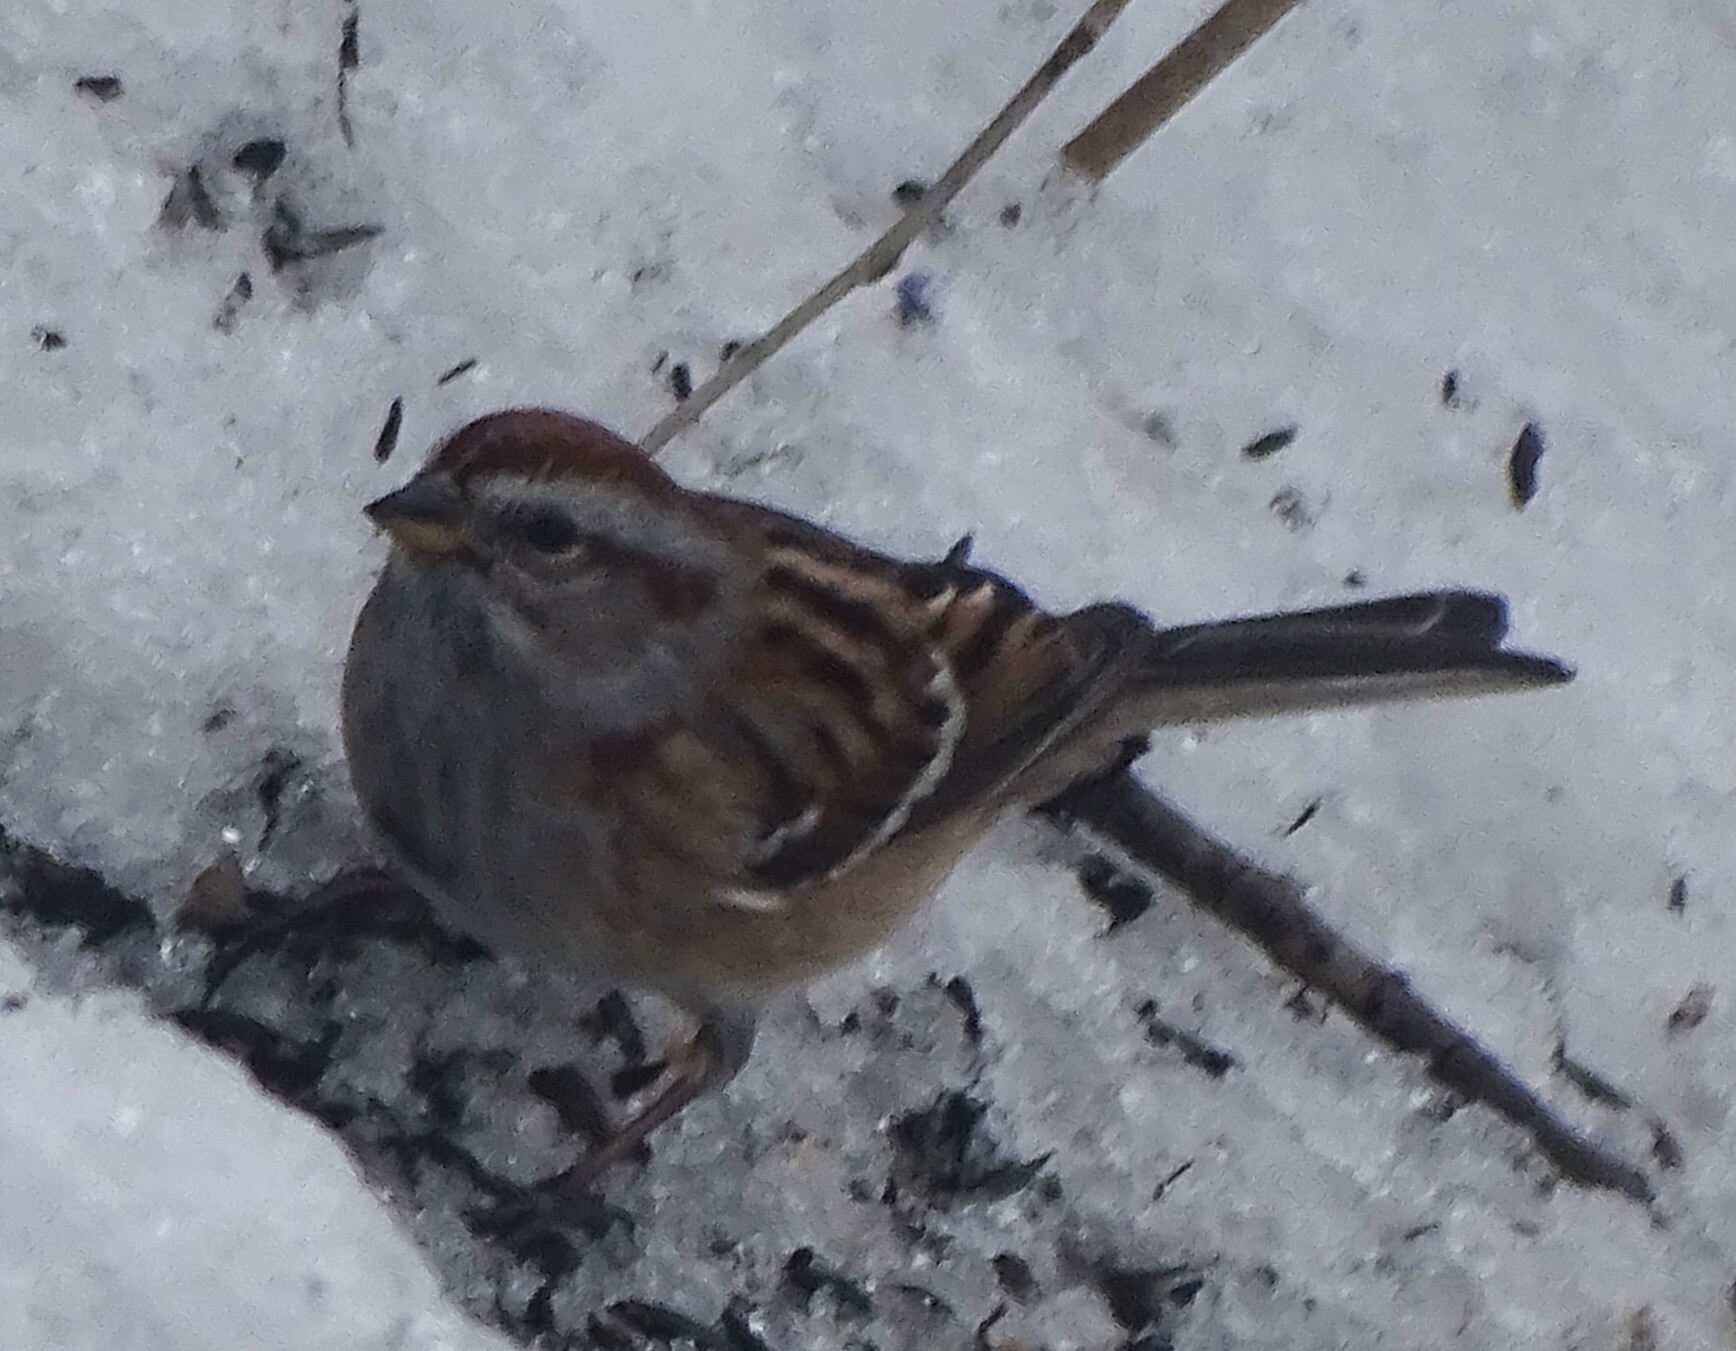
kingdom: Animalia
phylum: Chordata
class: Aves
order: Passeriformes
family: Passerellidae
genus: Spizelloides
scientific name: Spizelloides arborea
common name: American tree sparrow
